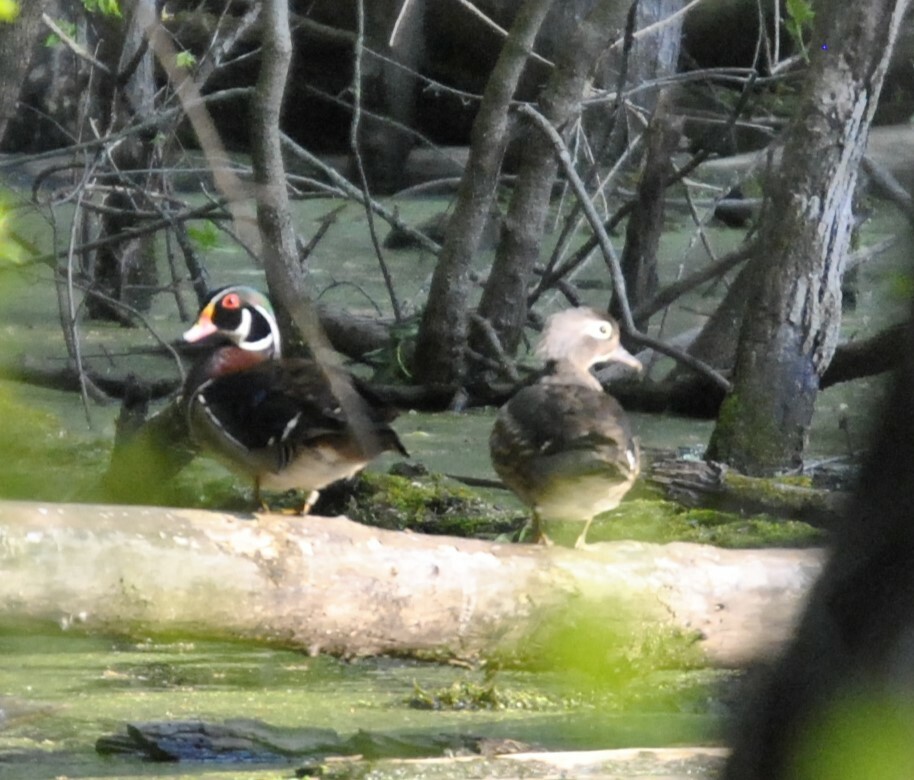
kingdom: Animalia
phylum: Chordata
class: Aves
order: Anseriformes
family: Anatidae
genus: Aix
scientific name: Aix sponsa
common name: Wood duck
